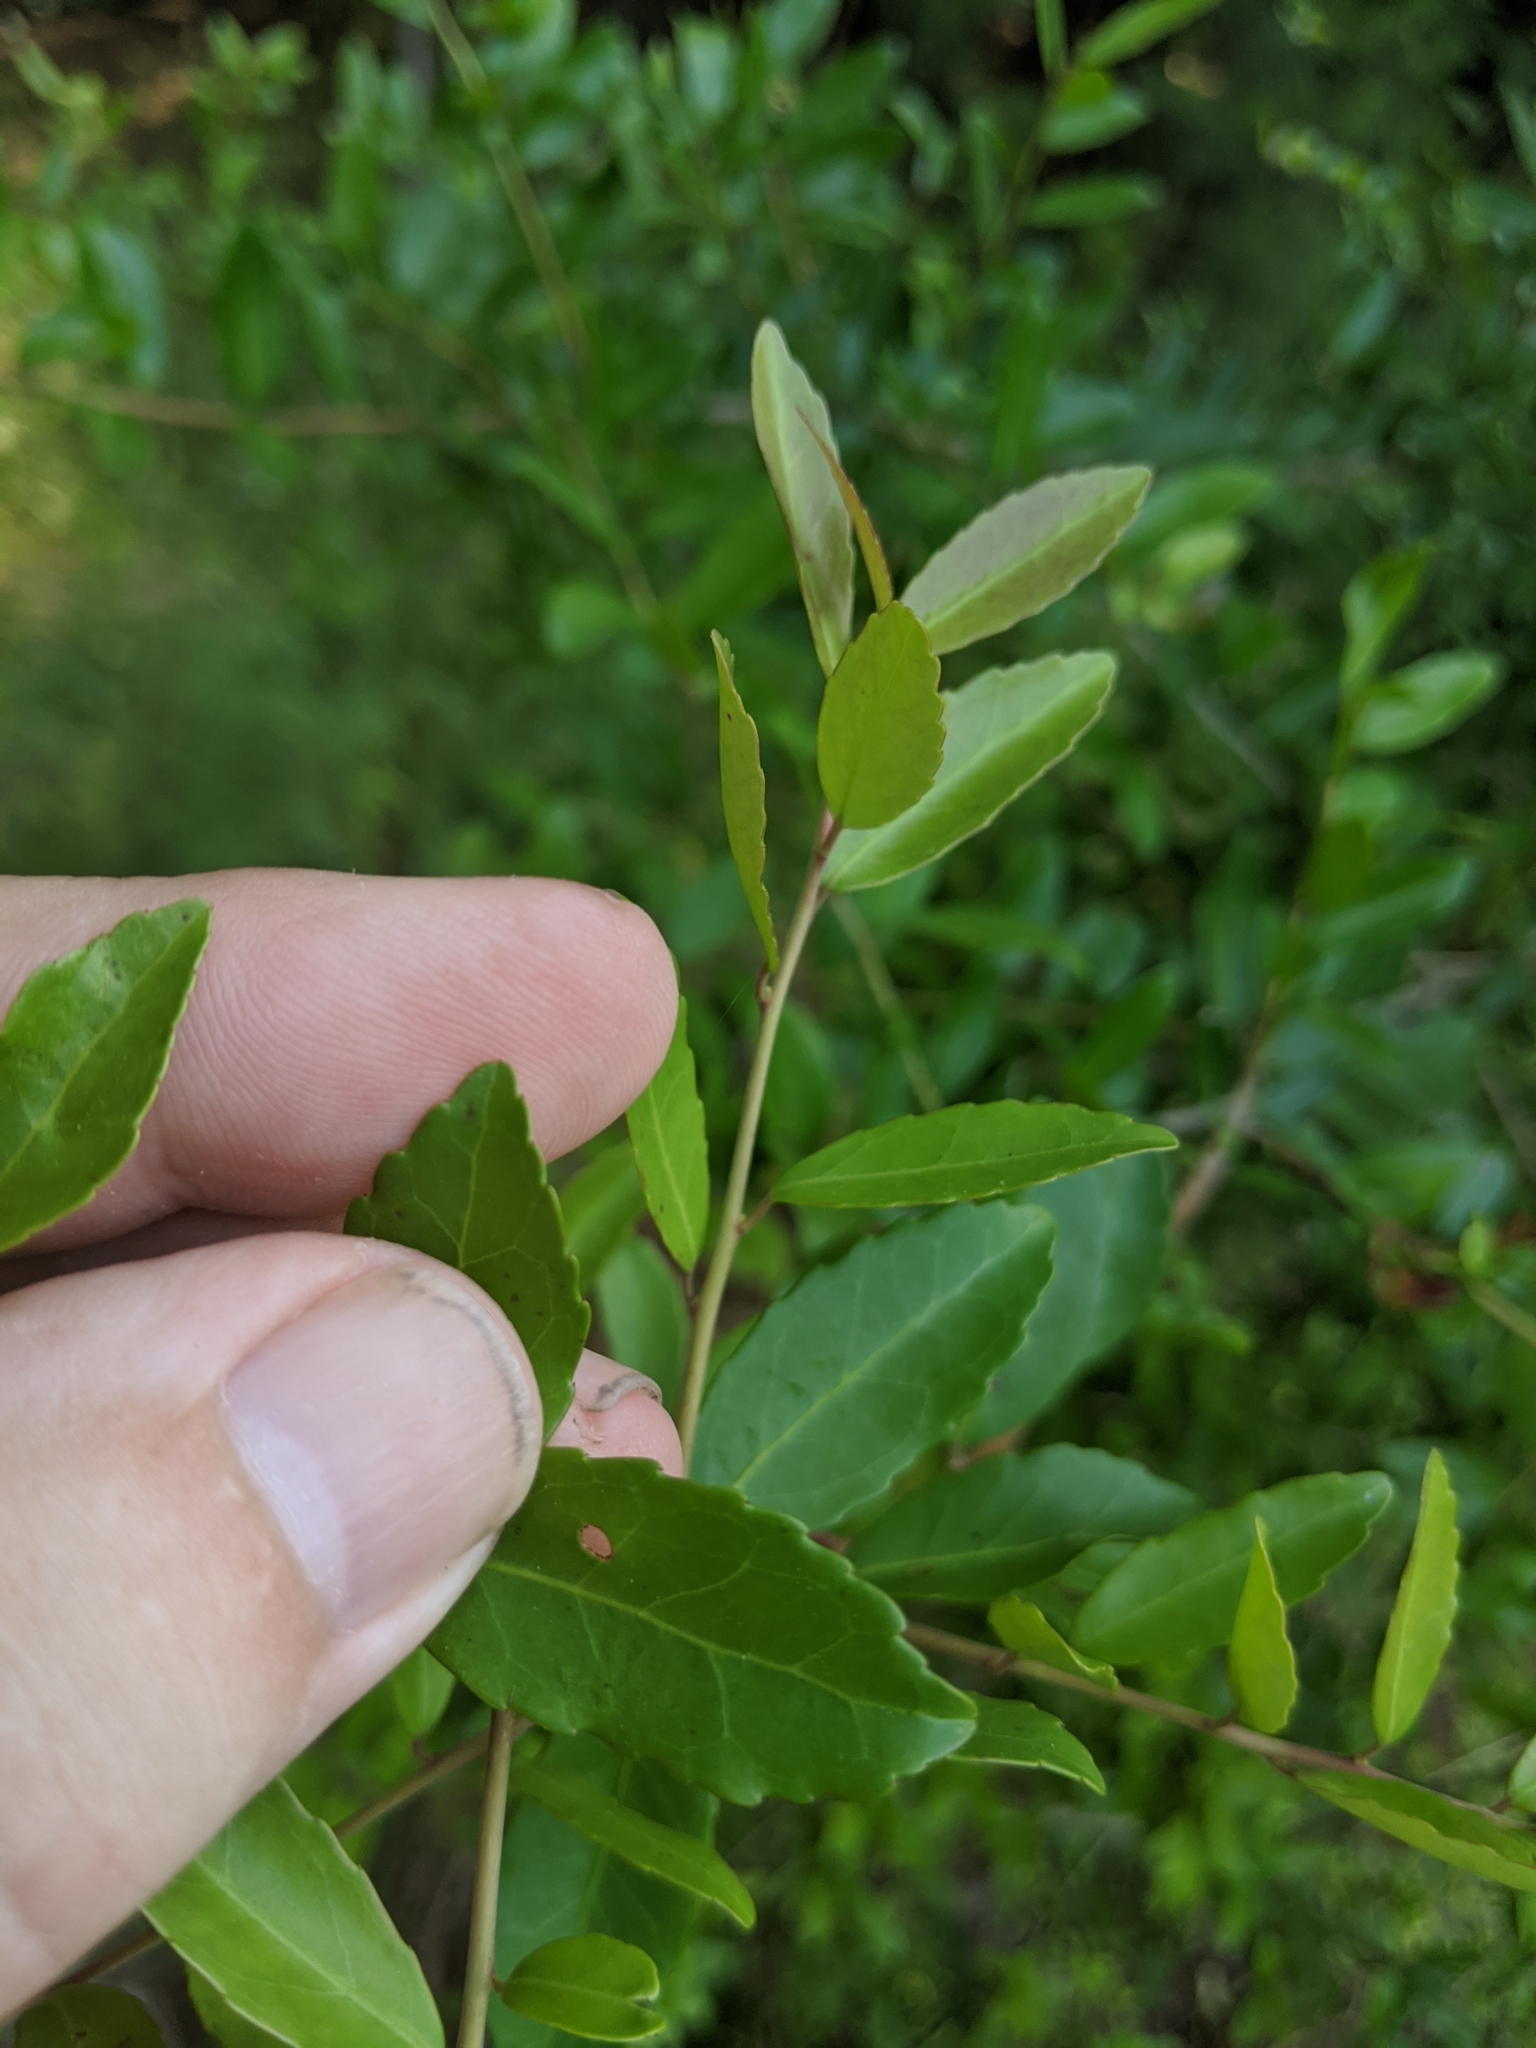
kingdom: Plantae
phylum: Tracheophyta
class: Magnoliopsida
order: Aquifoliales
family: Aquifoliaceae
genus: Ilex
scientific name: Ilex vomitoria
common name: Yaupon holly
